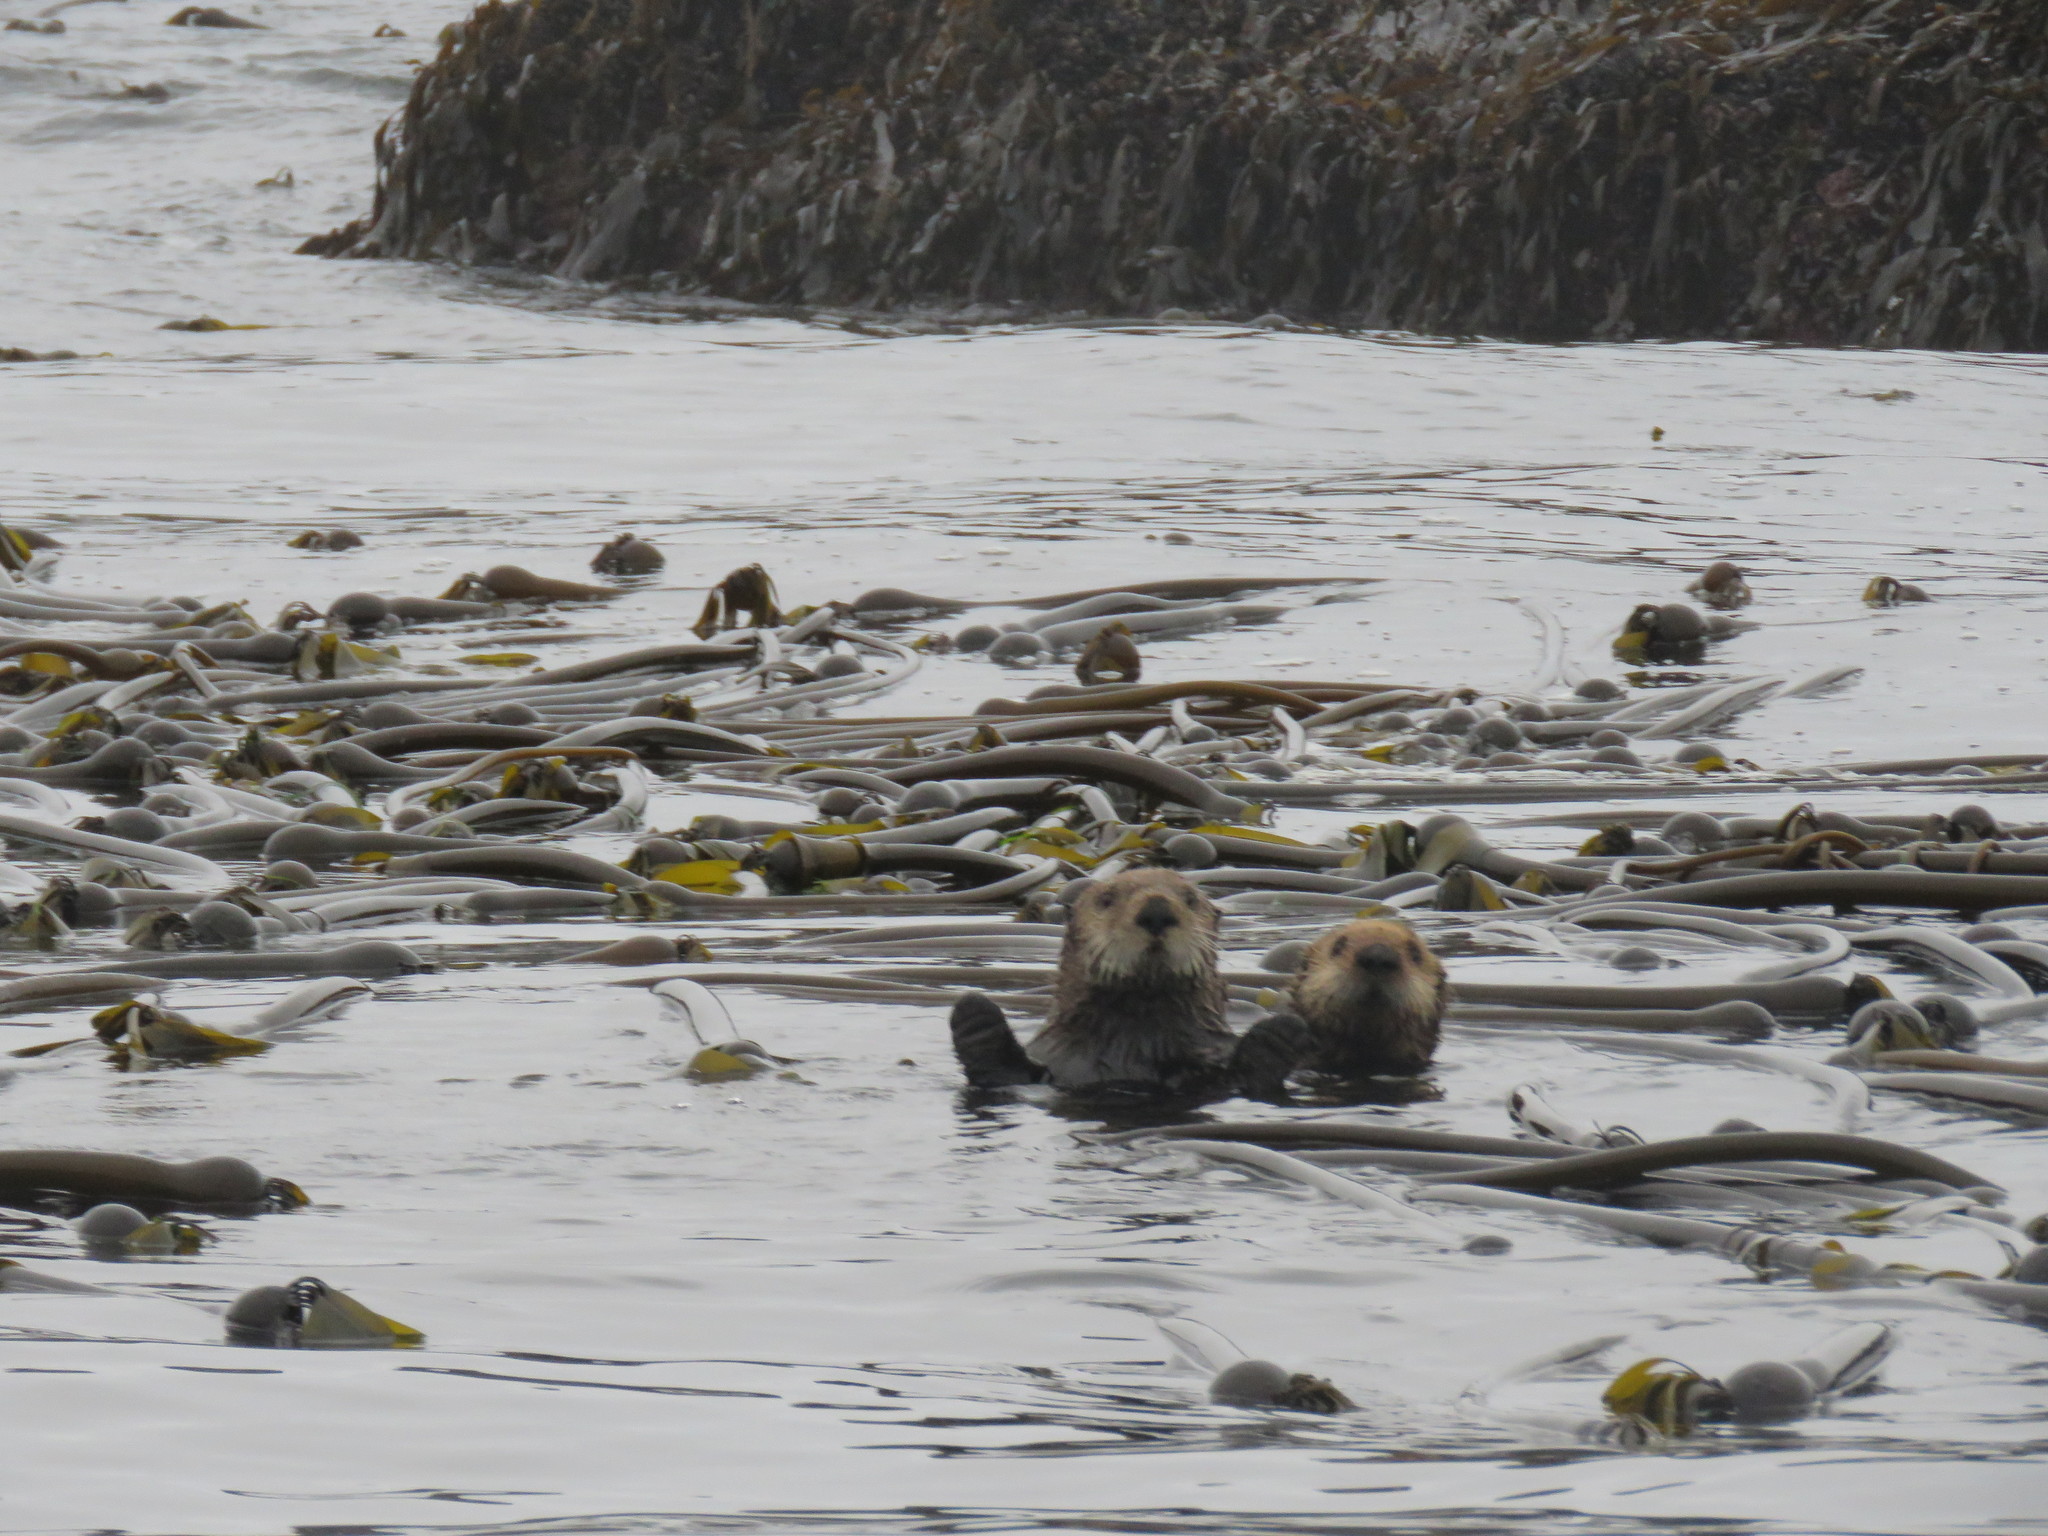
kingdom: Animalia
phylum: Chordata
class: Mammalia
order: Carnivora
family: Mustelidae
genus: Enhydra
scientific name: Enhydra lutris
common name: Sea otter
